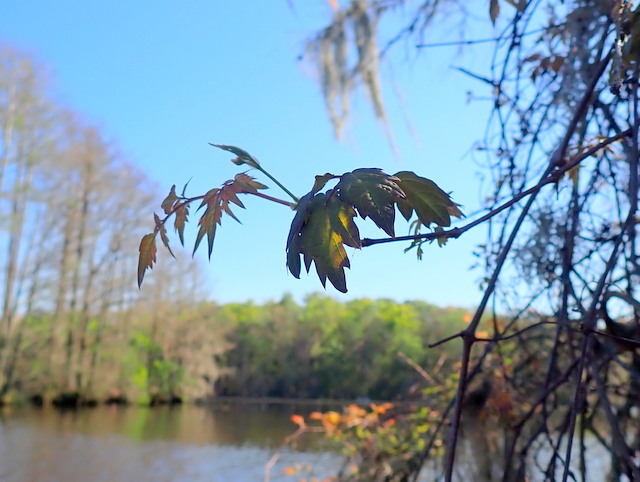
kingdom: Plantae
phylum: Tracheophyta
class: Magnoliopsida
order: Vitales
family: Vitaceae
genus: Nekemias
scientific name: Nekemias arborea
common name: Peppervine
